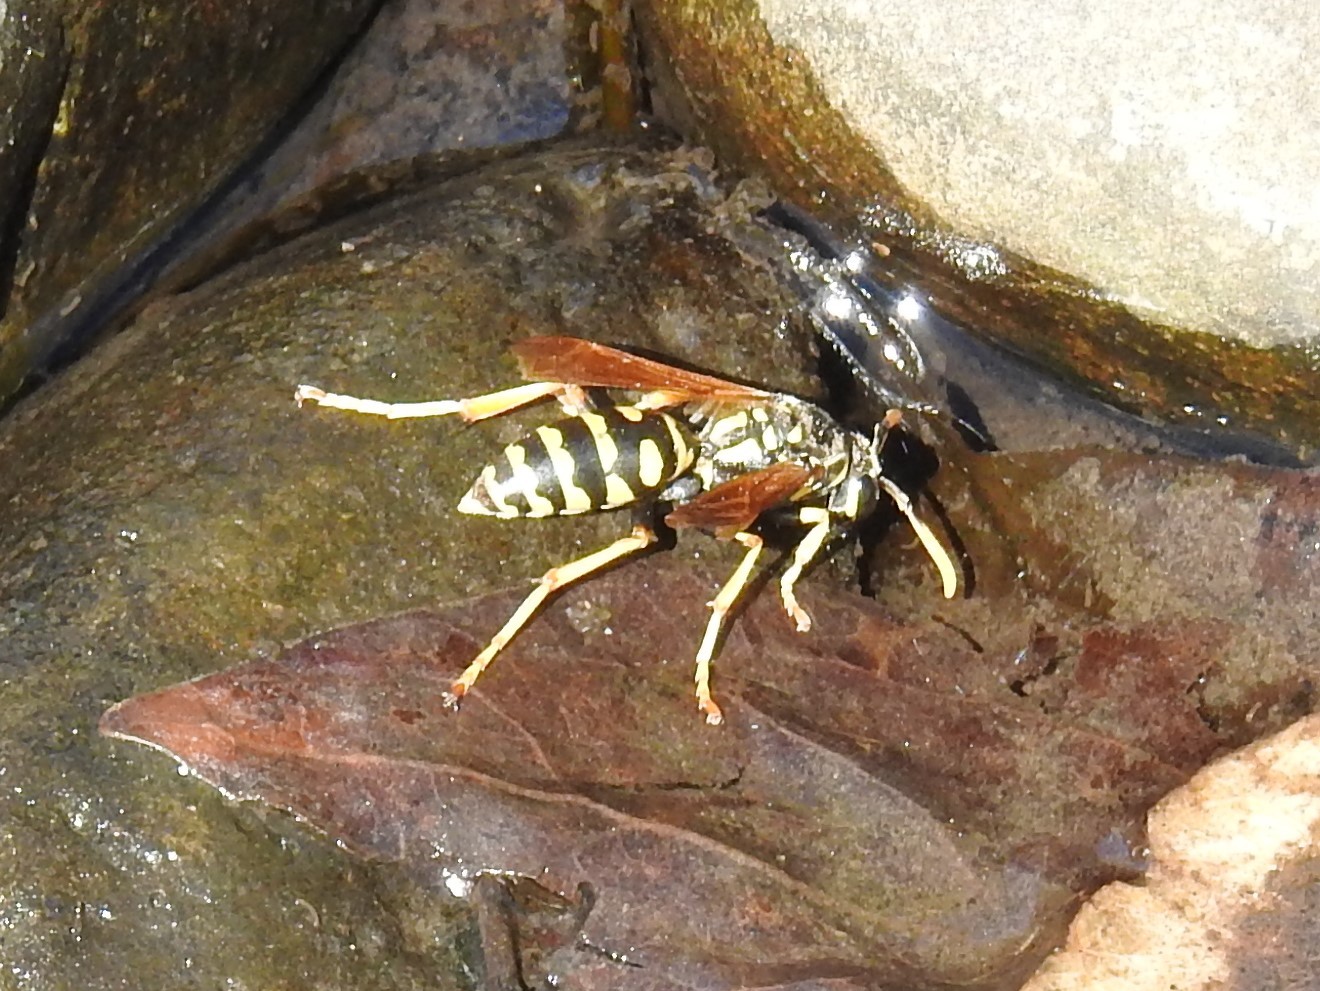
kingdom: Animalia
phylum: Arthropoda
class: Insecta
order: Hymenoptera
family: Eumenidae
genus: Polistes
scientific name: Polistes dominula
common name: Paper wasp
